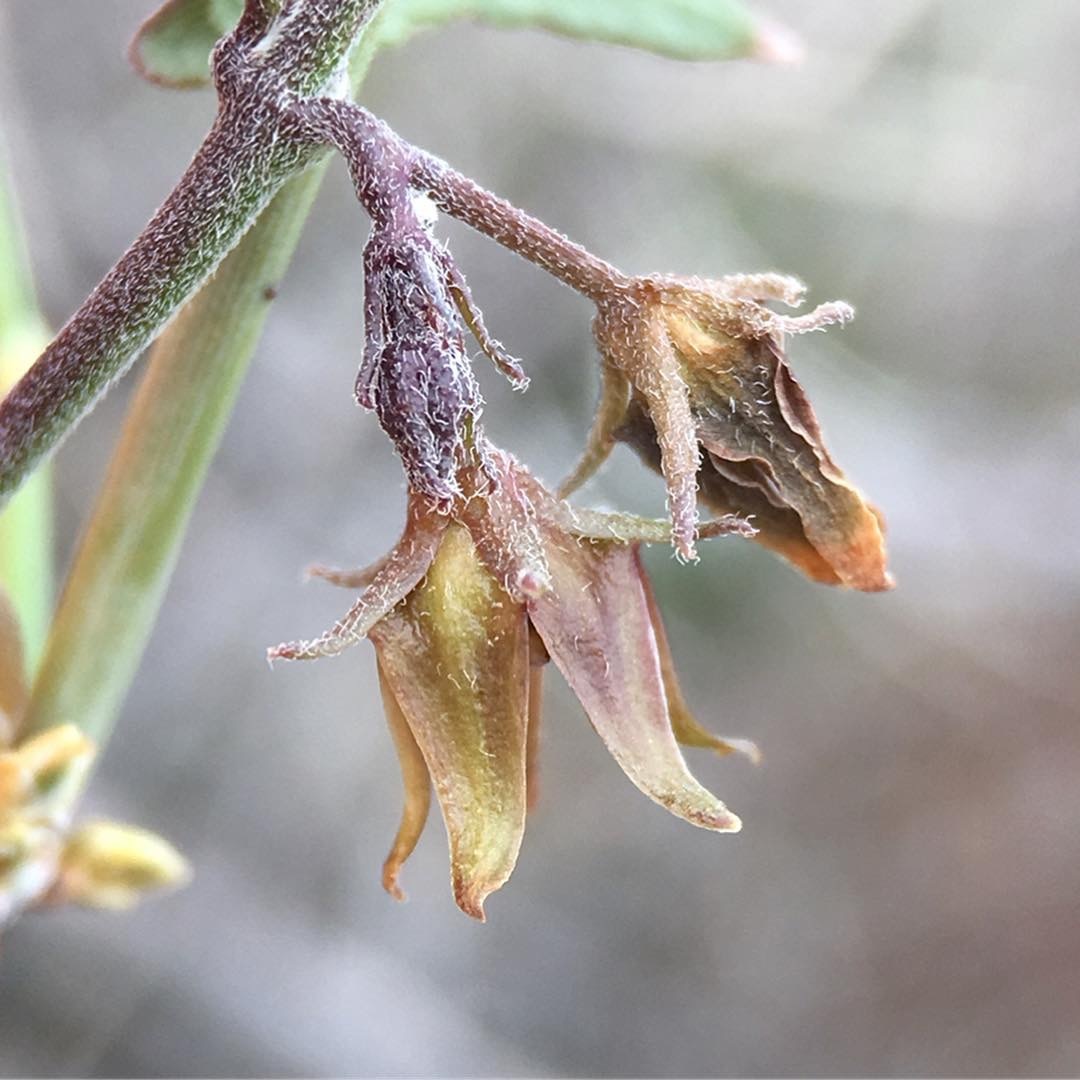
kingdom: Plantae
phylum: Tracheophyta
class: Magnoliopsida
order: Gentianales
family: Apocynaceae
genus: Matelea
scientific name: Matelea parvifolia
